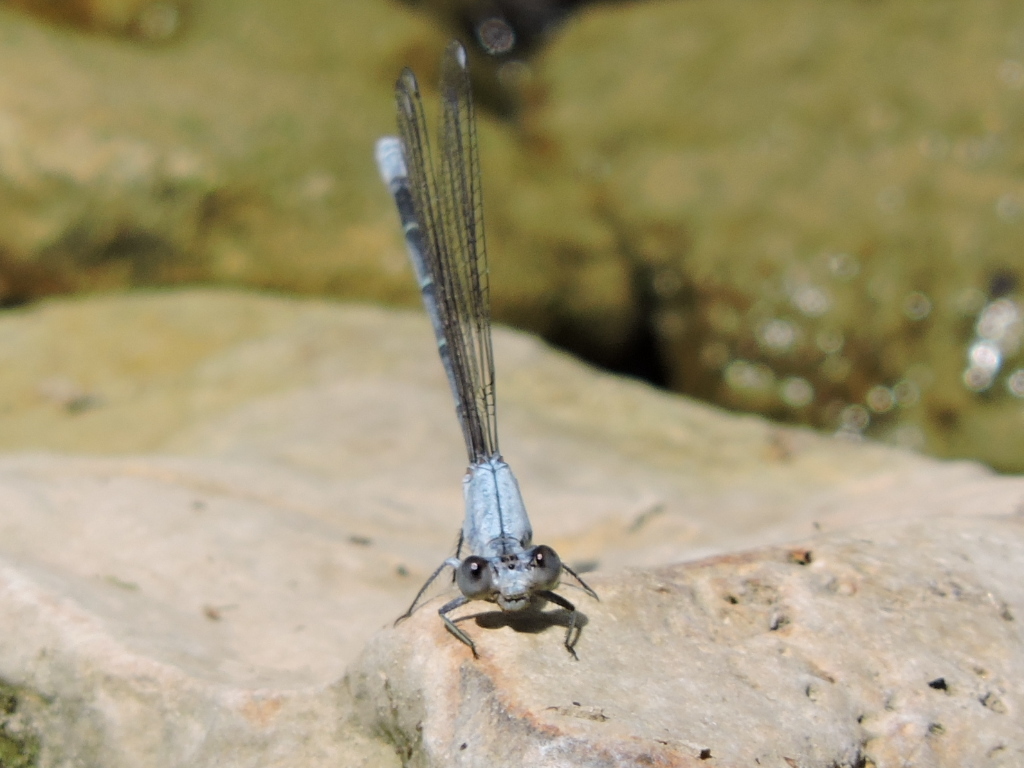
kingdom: Animalia
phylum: Arthropoda
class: Insecta
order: Odonata
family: Coenagrionidae
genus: Argia
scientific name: Argia moesta
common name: Powdered dancer
